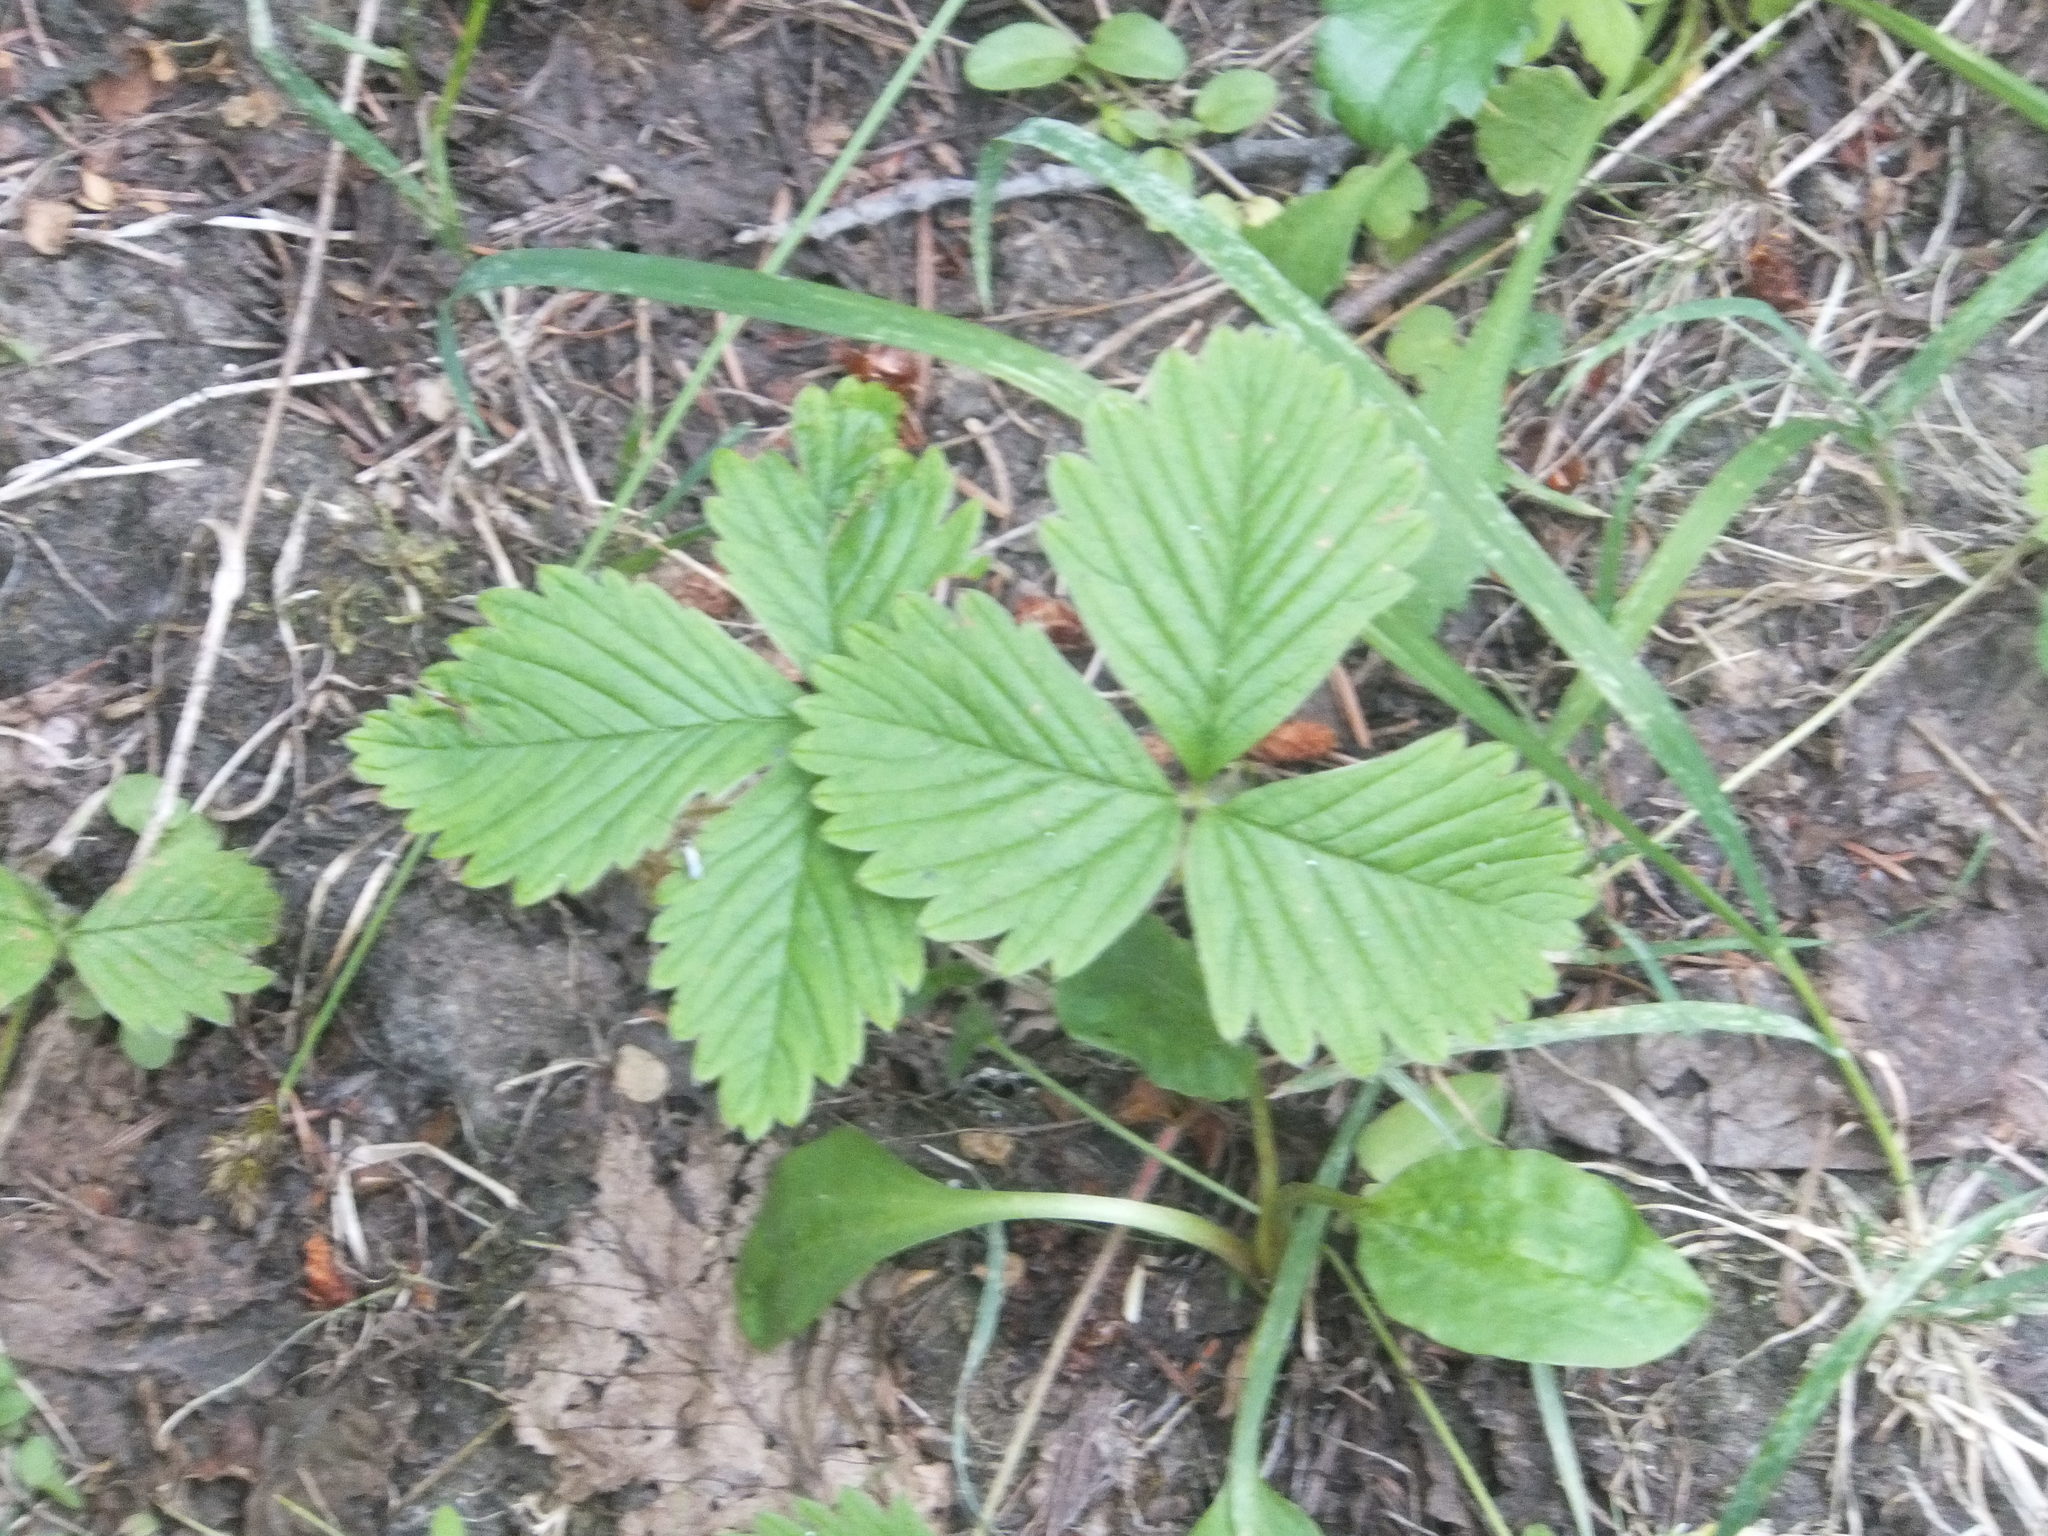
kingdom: Plantae
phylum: Tracheophyta
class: Magnoliopsida
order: Rosales
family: Rosaceae
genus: Fragaria
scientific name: Fragaria vesca
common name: Wild strawberry
